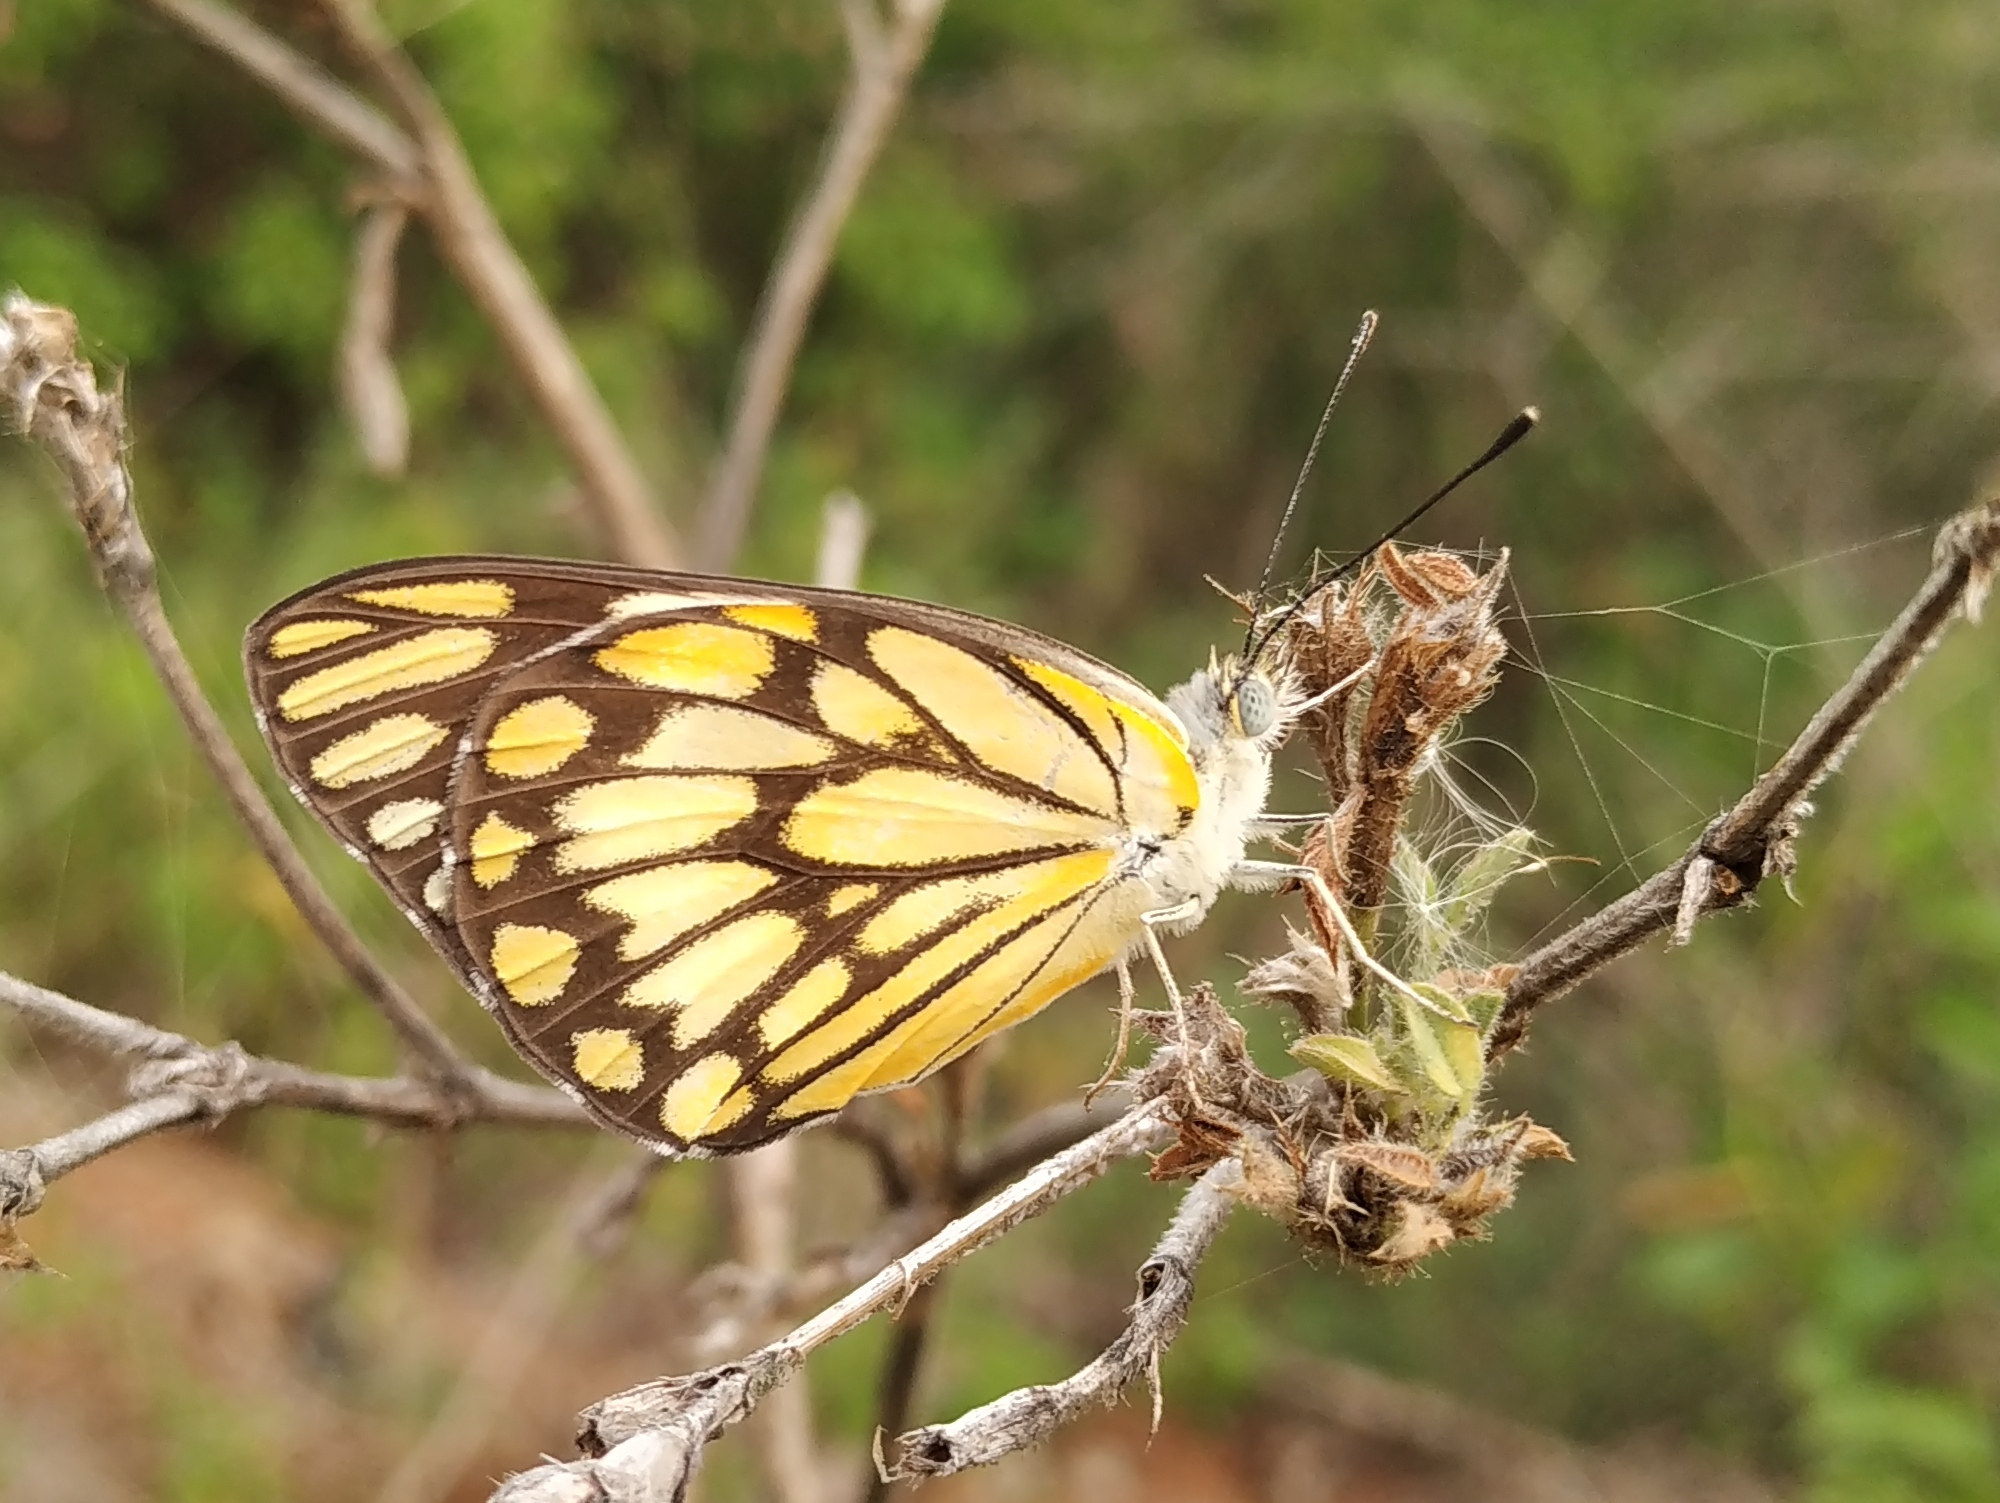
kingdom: Animalia
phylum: Arthropoda
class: Insecta
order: Lepidoptera
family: Pieridae
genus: Belenois
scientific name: Belenois aurota
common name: Brown-veined white
